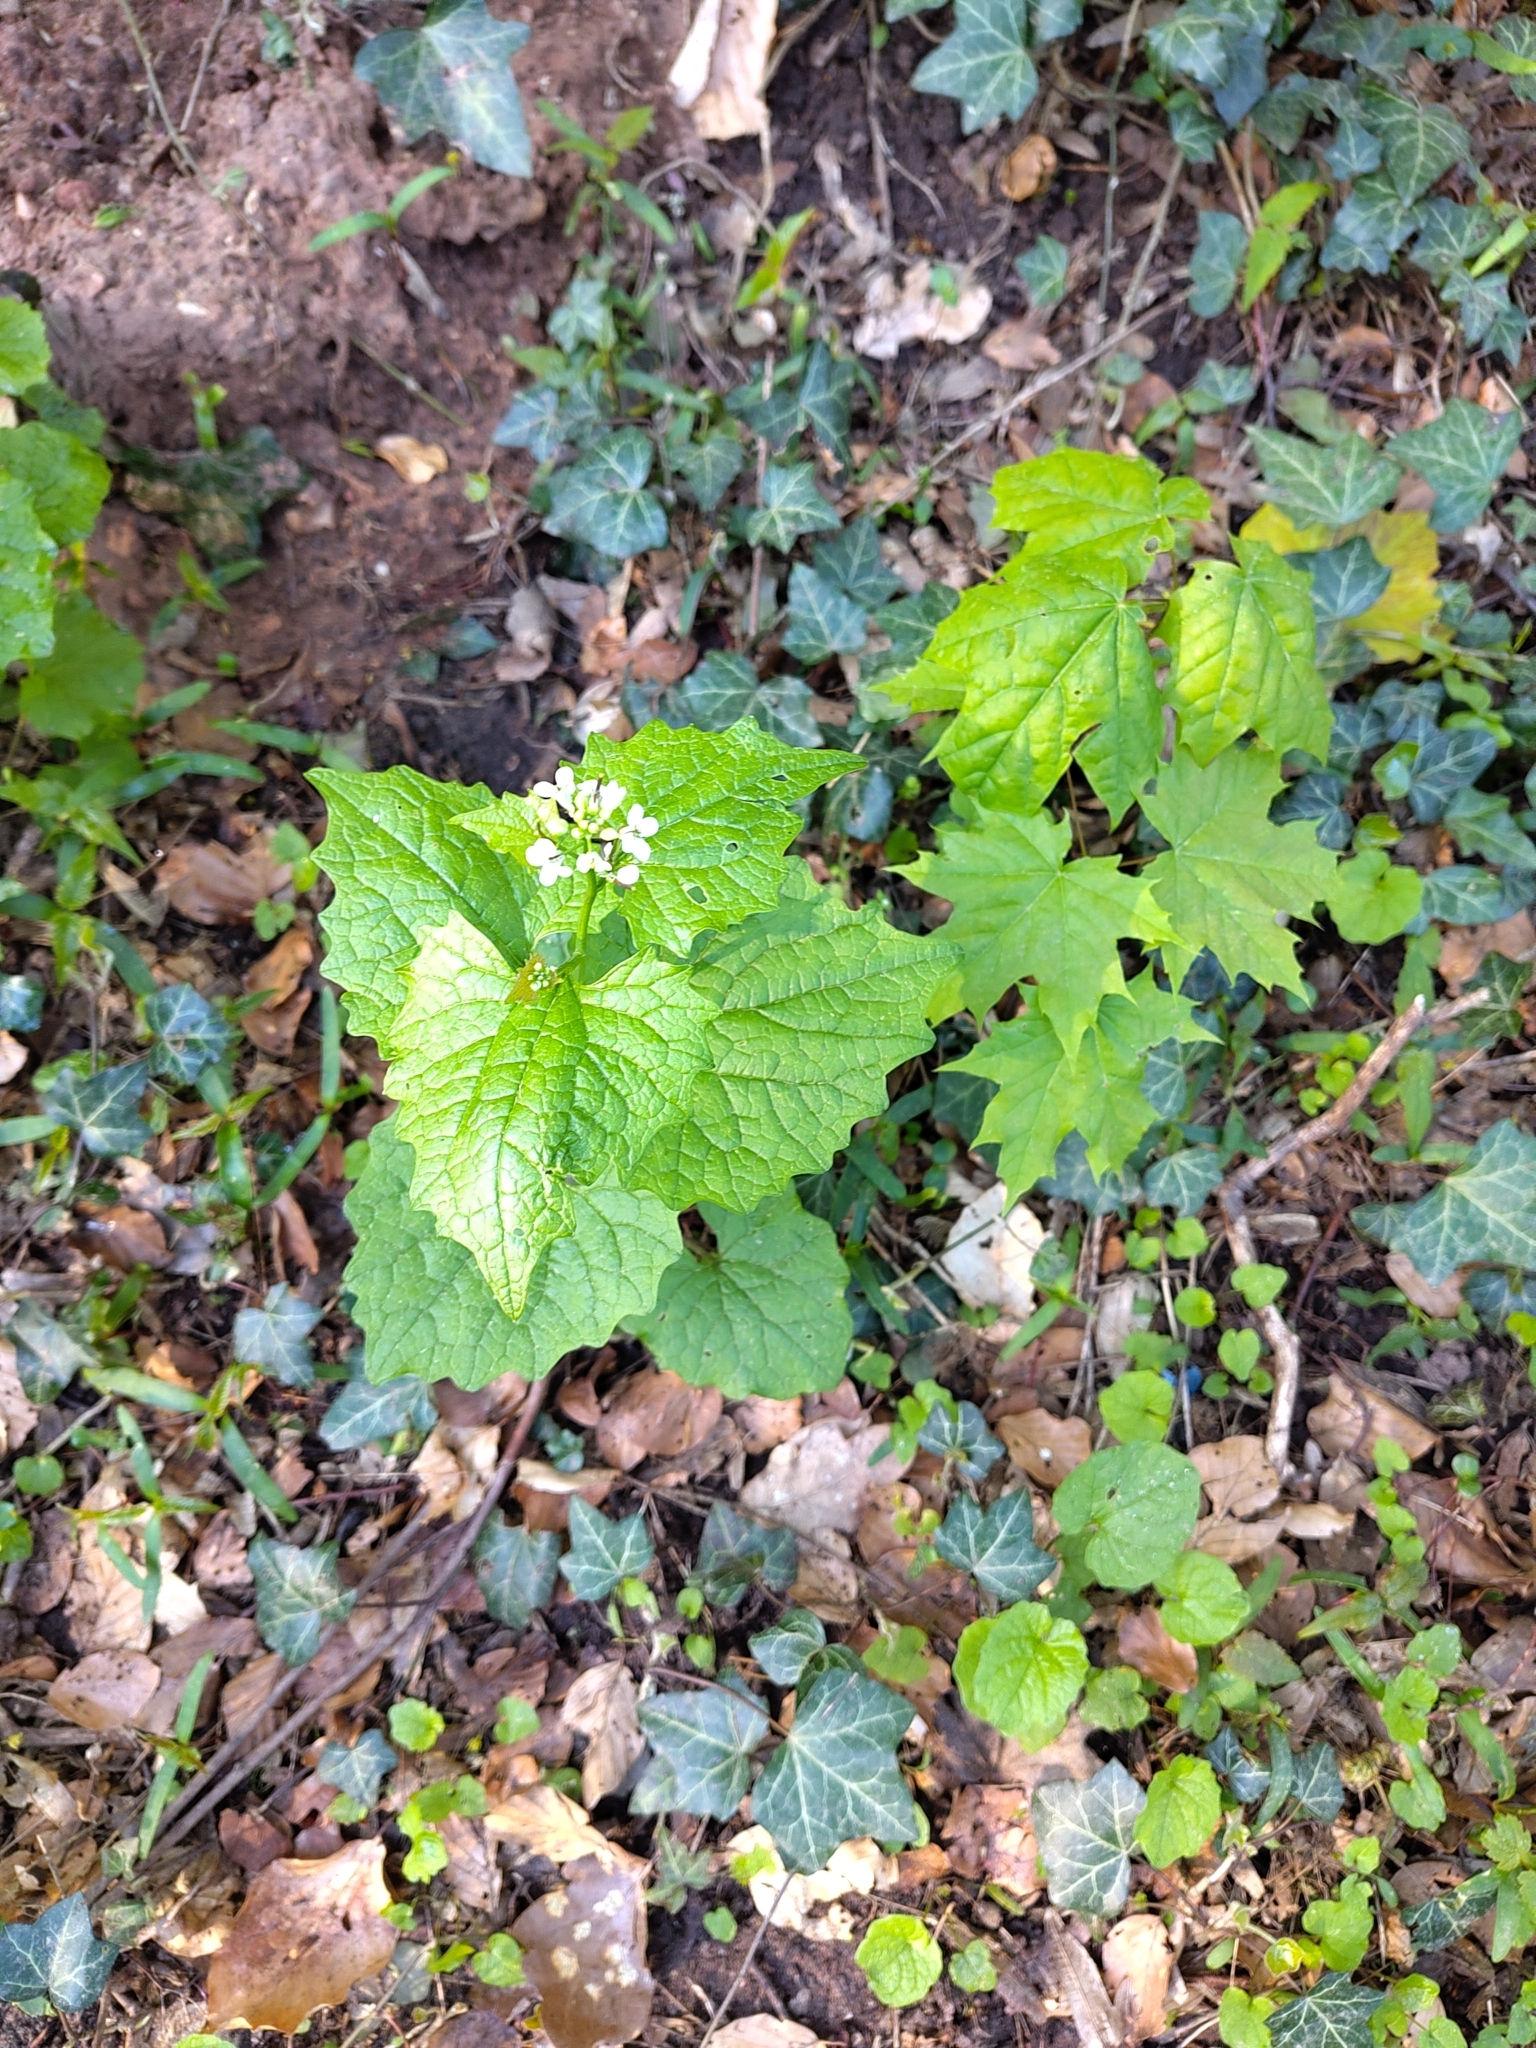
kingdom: Plantae
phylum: Tracheophyta
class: Magnoliopsida
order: Brassicales
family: Brassicaceae
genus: Alliaria
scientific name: Alliaria petiolata
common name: Garlic mustard
